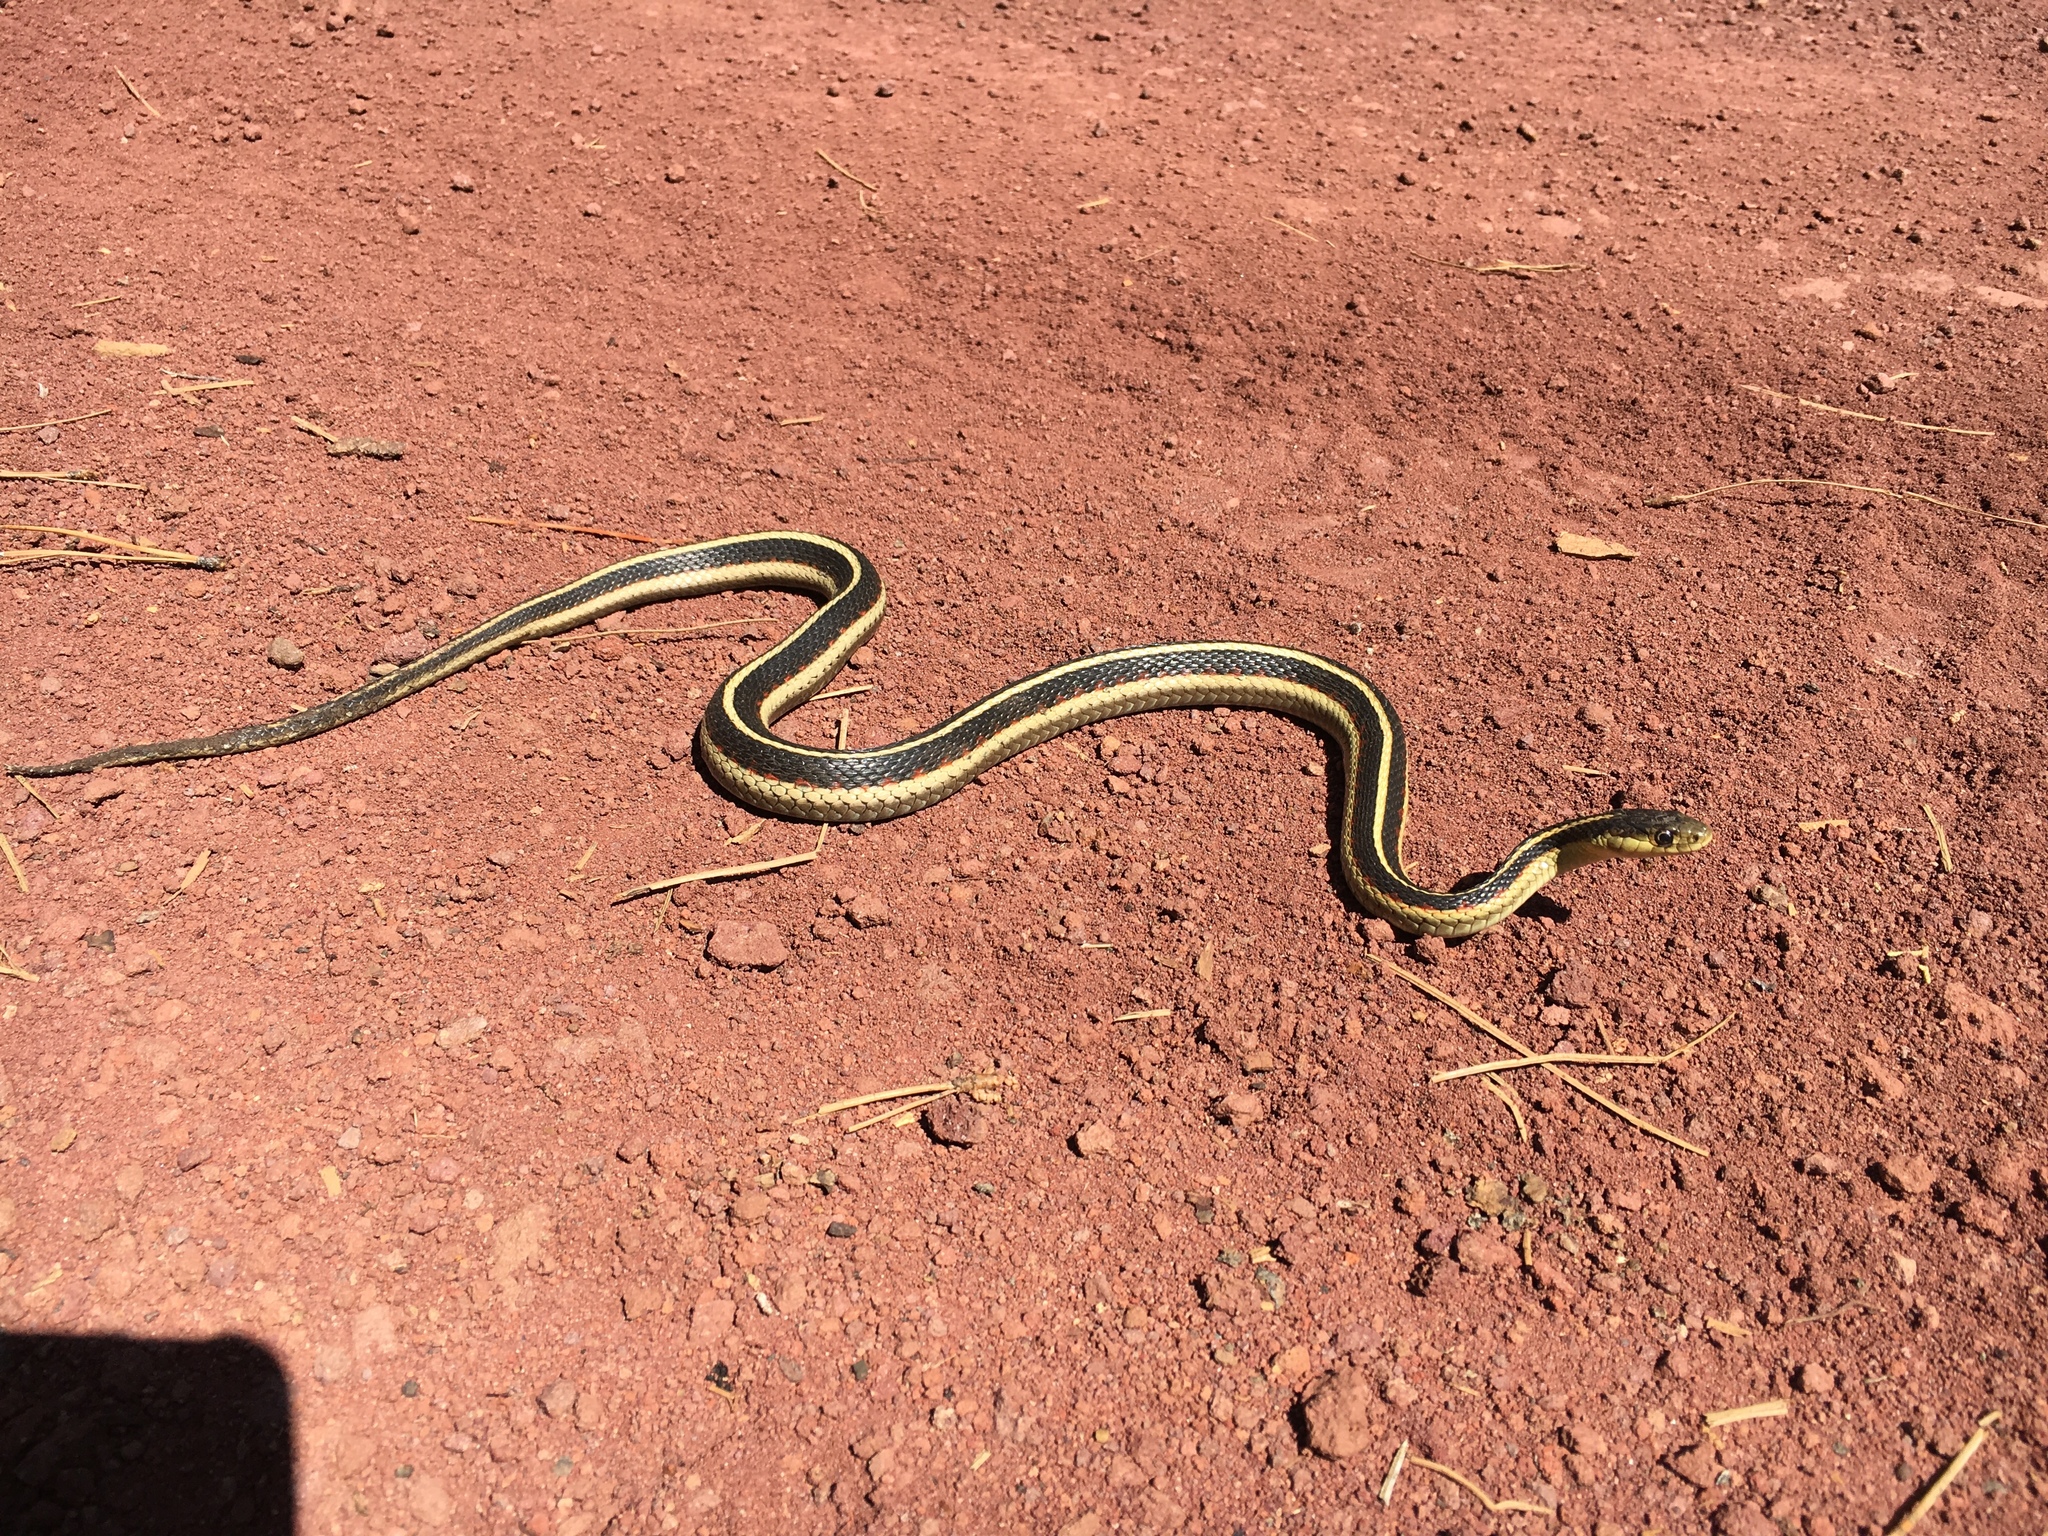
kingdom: Animalia
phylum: Chordata
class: Squamata
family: Colubridae
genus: Thamnophis
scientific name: Thamnophis sirtalis
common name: Common garter snake
